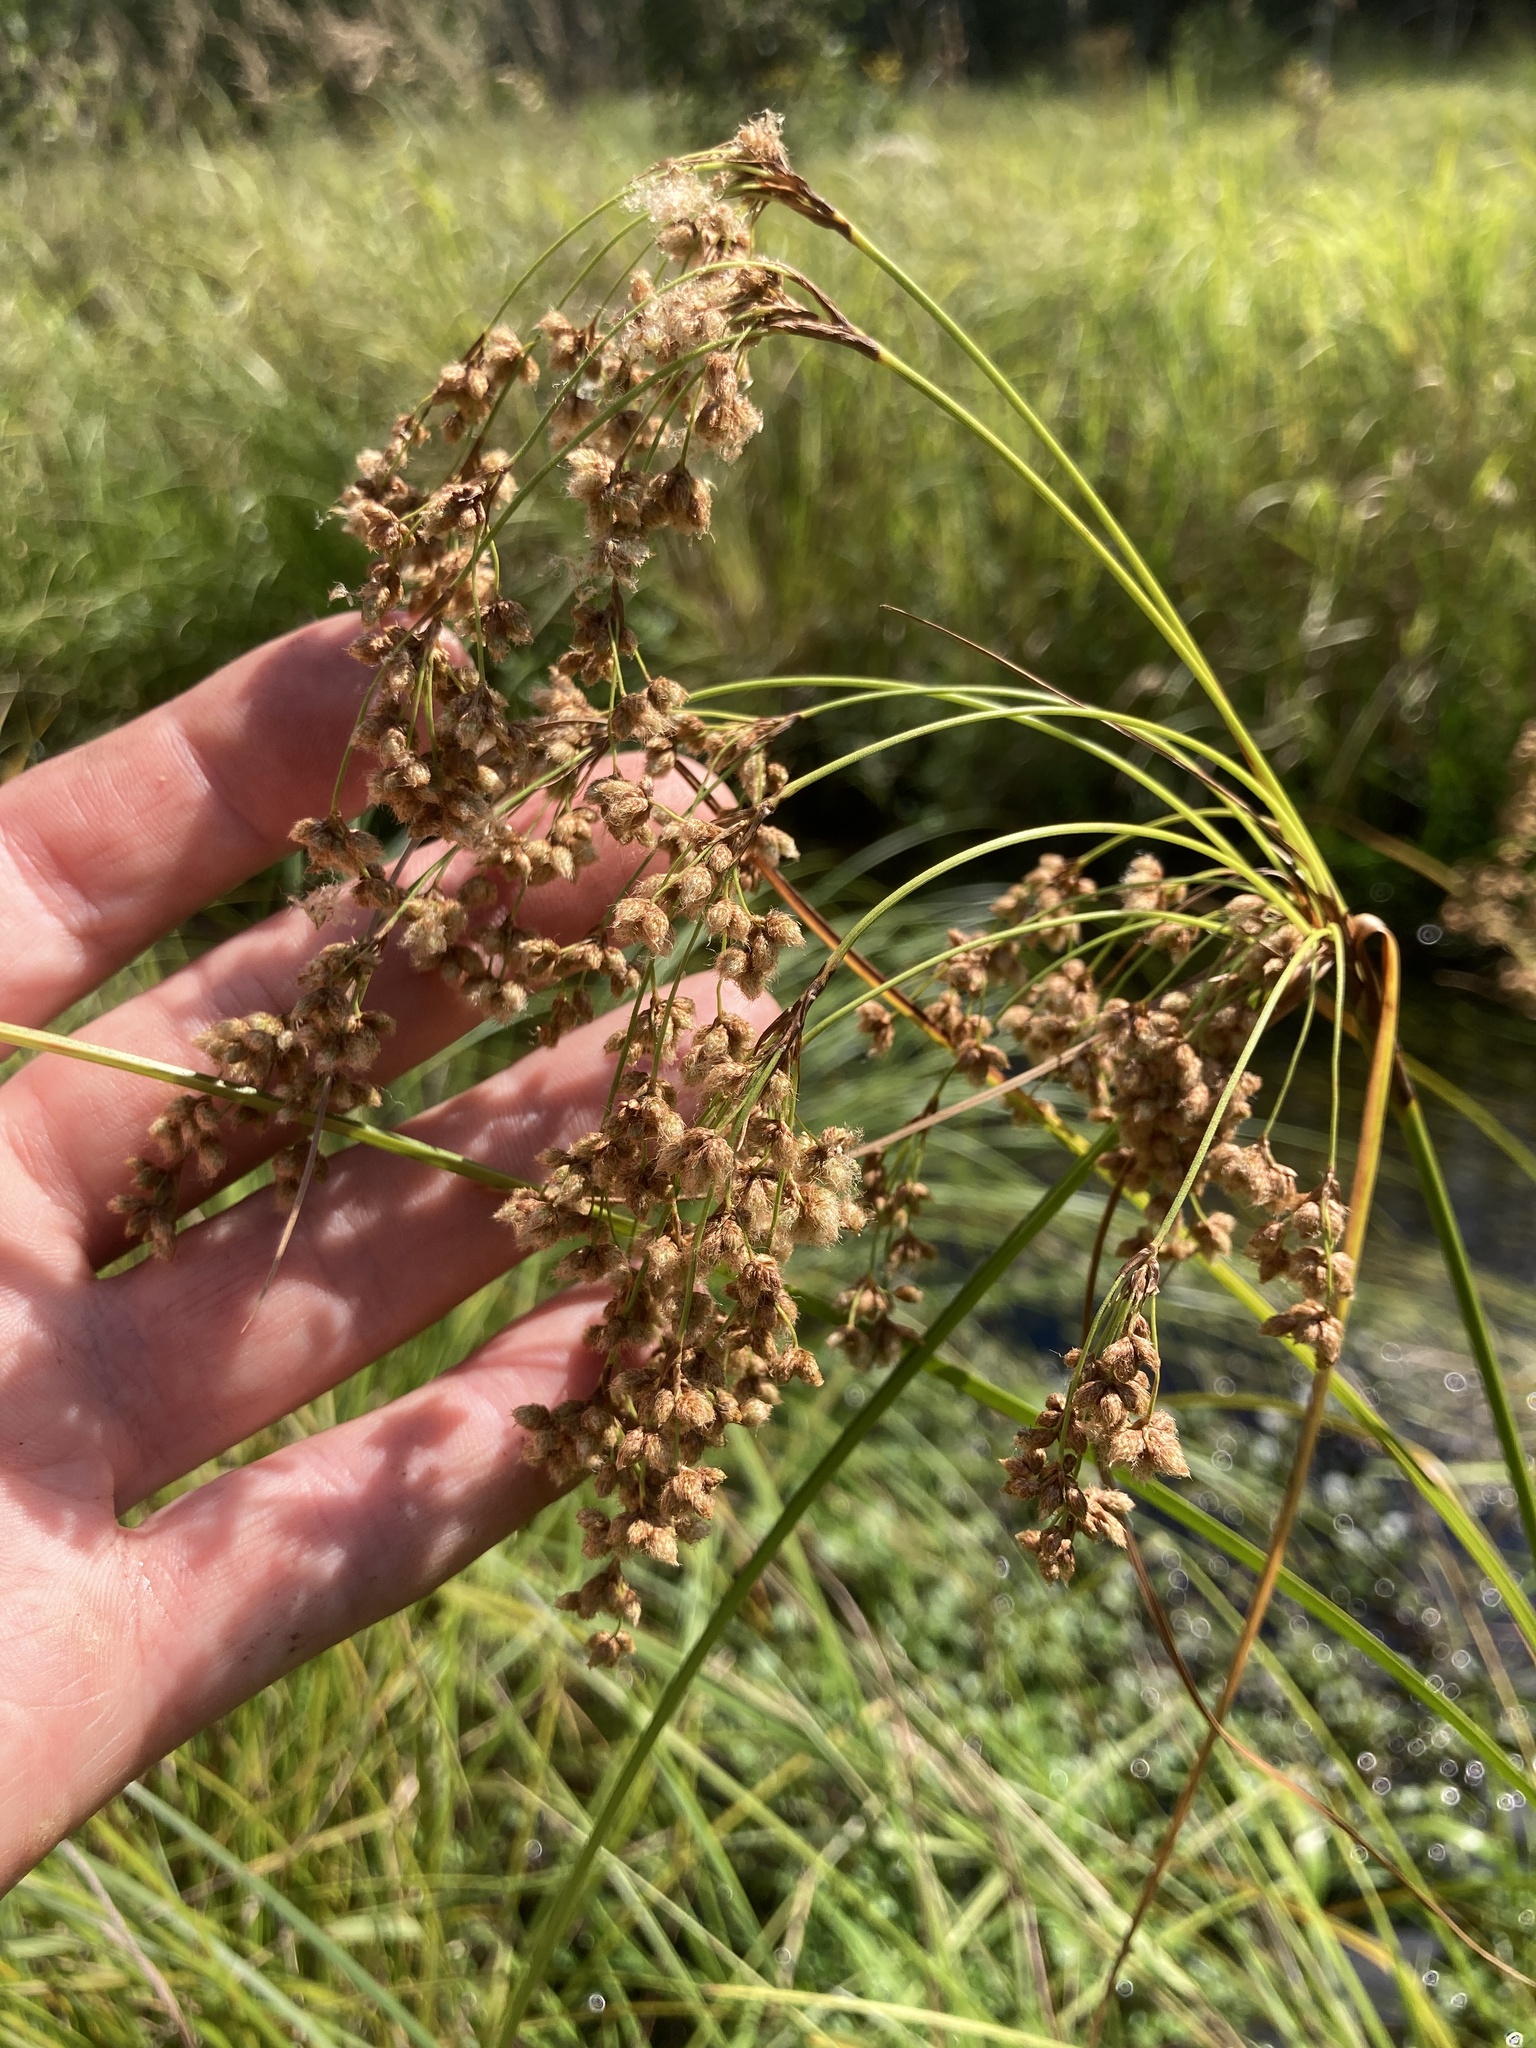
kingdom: Plantae
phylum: Tracheophyta
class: Liliopsida
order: Poales
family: Cyperaceae
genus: Scirpus
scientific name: Scirpus cyperinus
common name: Black-sheathed bulrush
